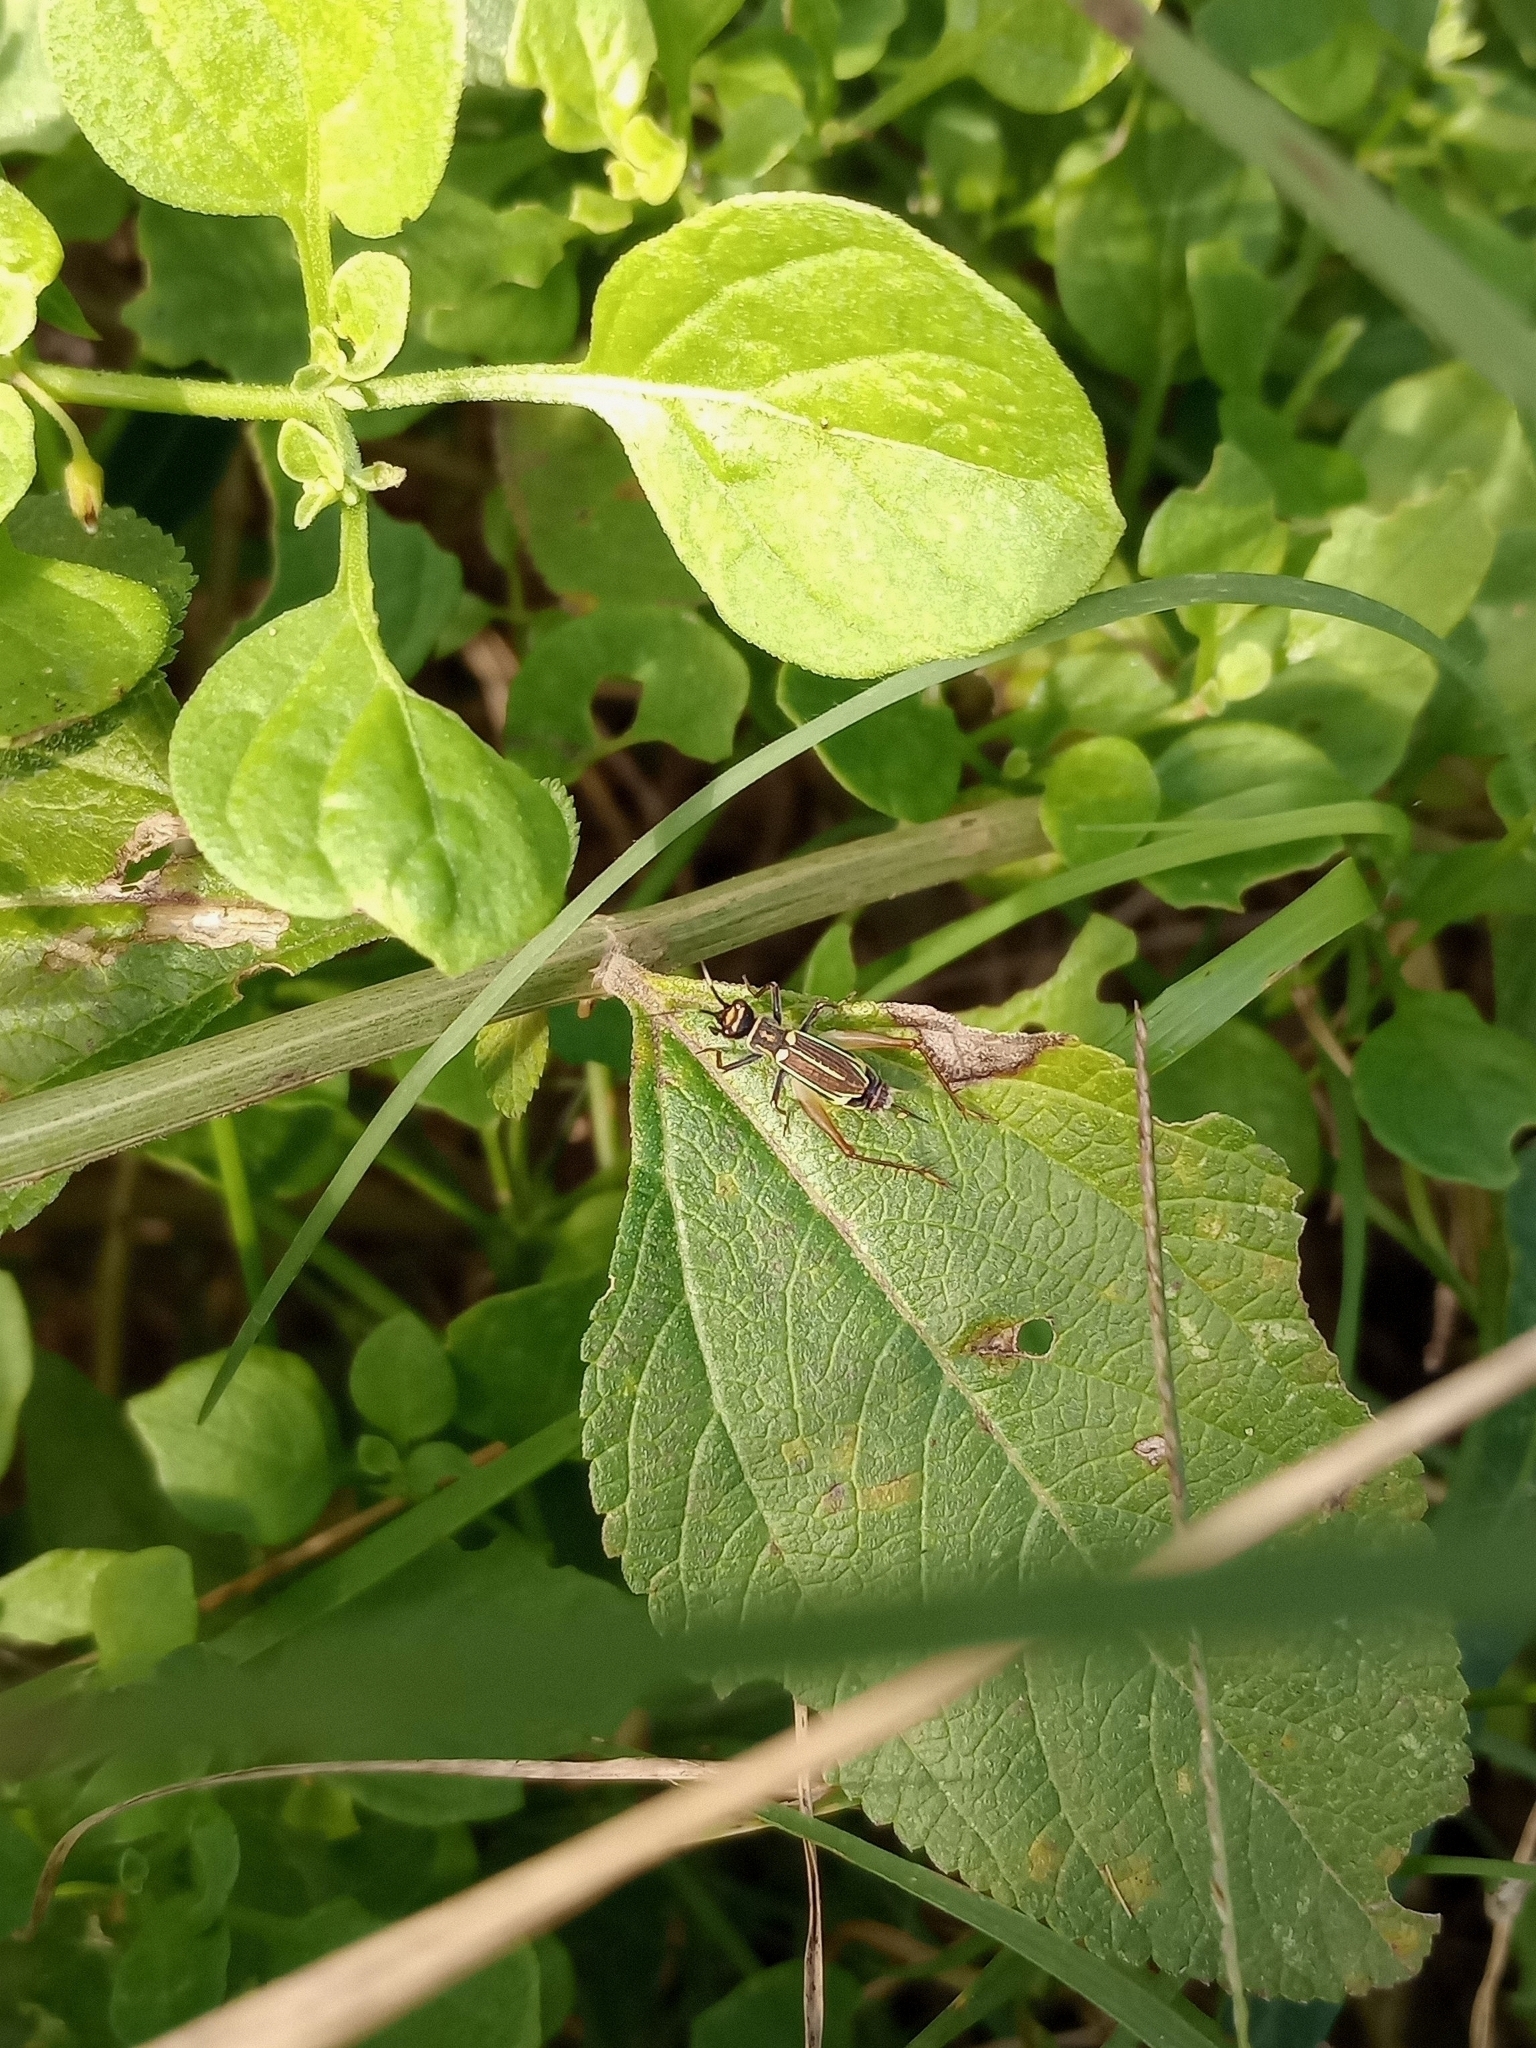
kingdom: Animalia
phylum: Arthropoda
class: Insecta
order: Orthoptera
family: Trigonidiidae
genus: Phylloscyrtus
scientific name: Phylloscyrtus amoenus
